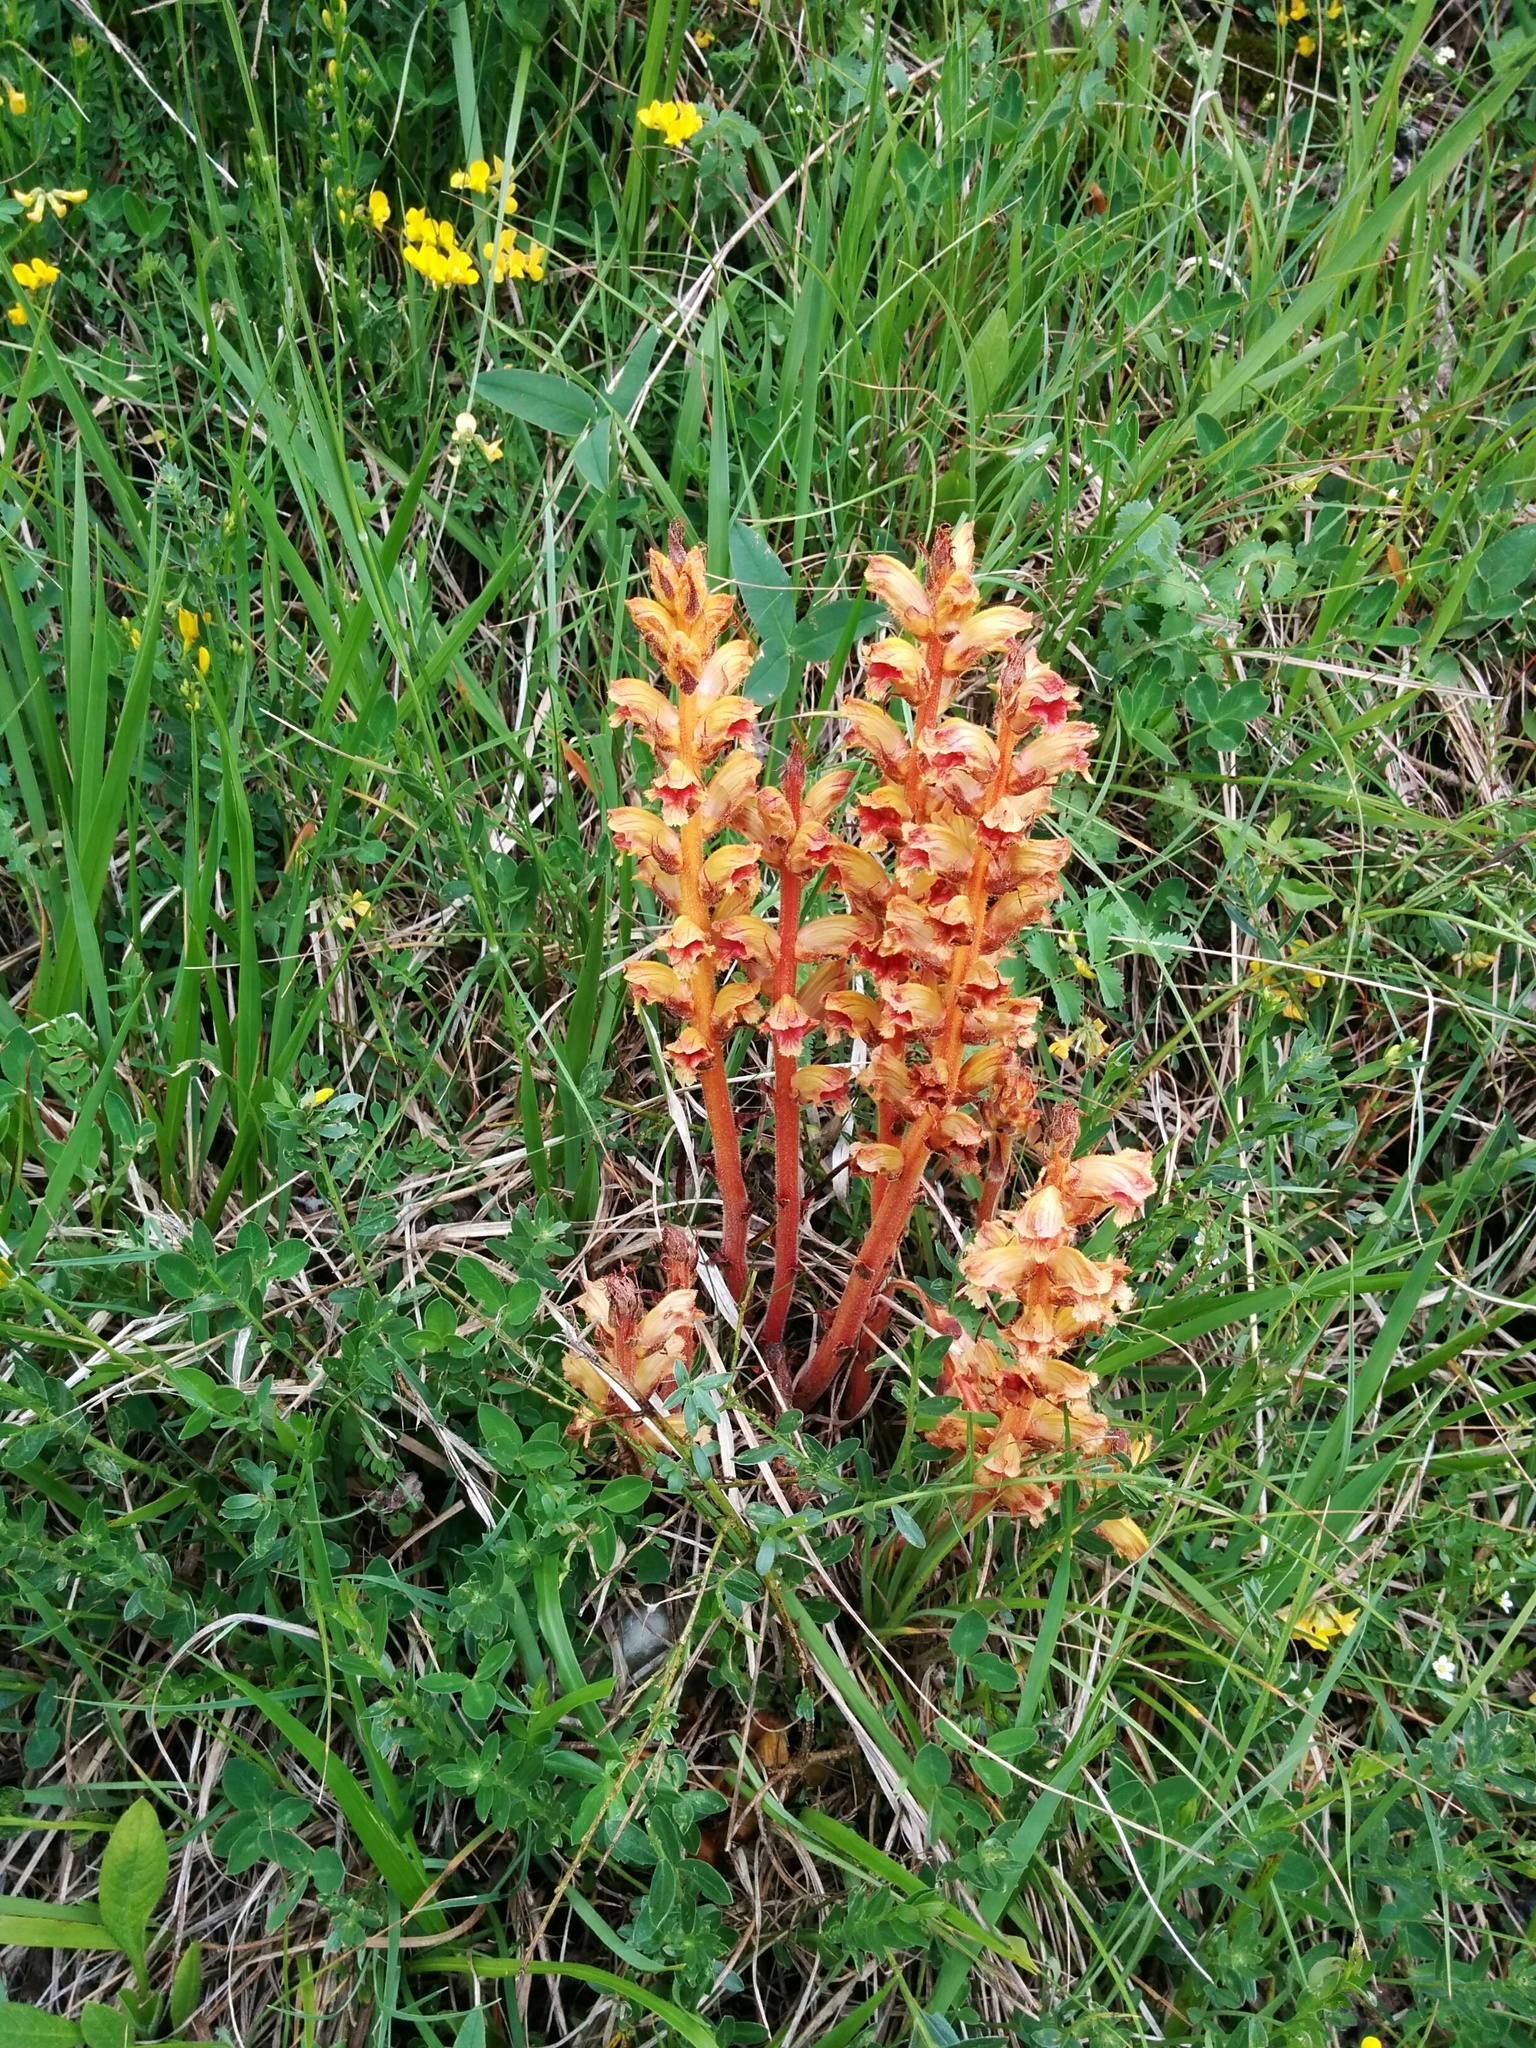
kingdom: Plantae
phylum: Tracheophyta
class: Magnoliopsida
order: Lamiales
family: Orobanchaceae
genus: Orobanche
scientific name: Orobanche gracilis
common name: Slender broomrape
